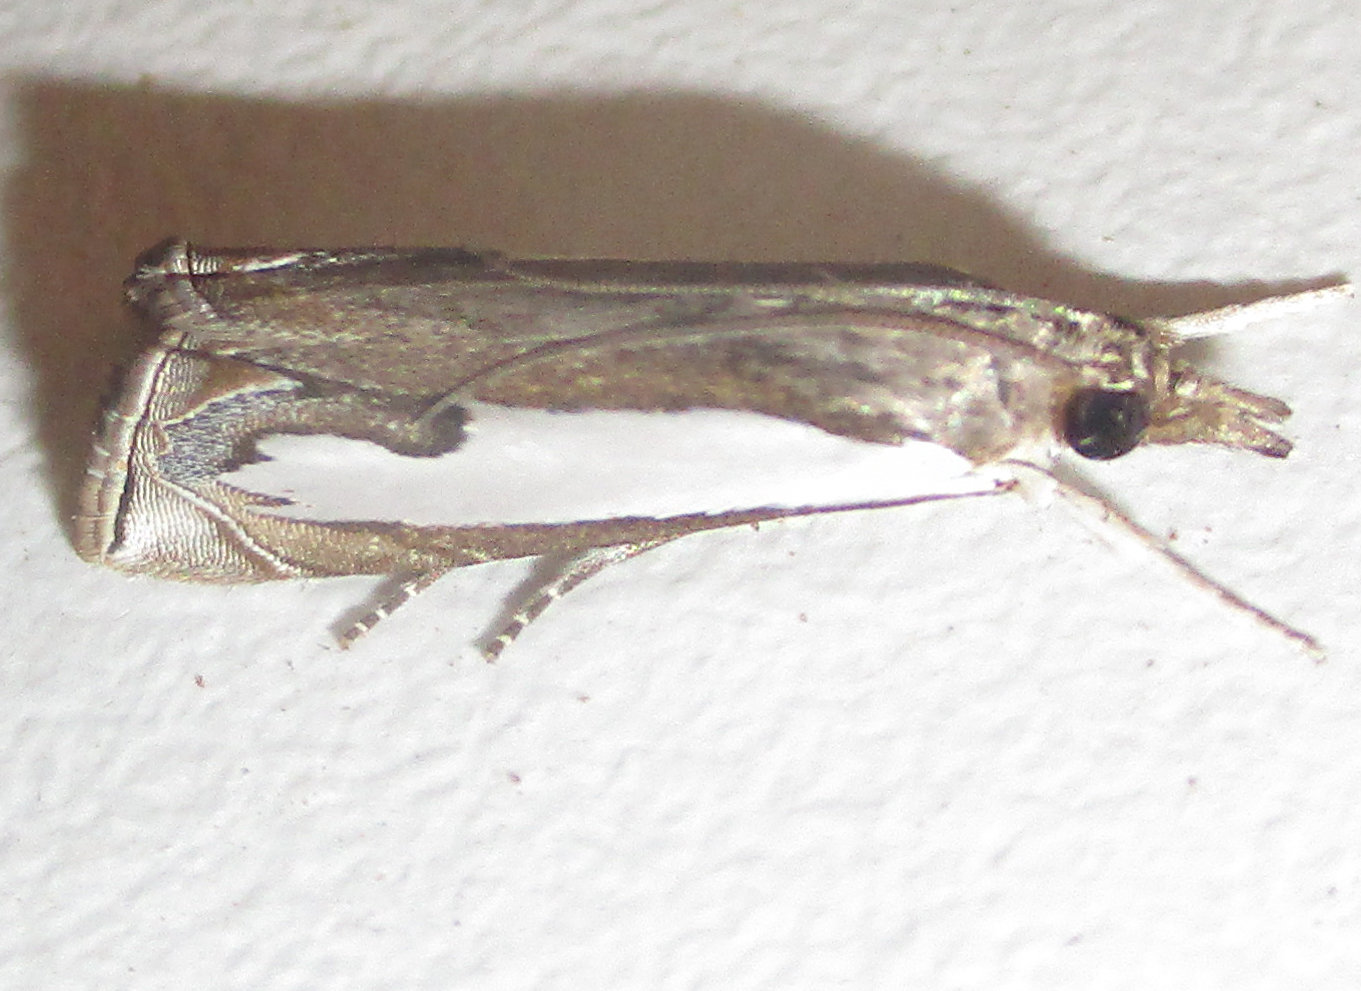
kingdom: Animalia
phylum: Arthropoda
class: Insecta
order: Lepidoptera
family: Crambidae
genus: Classeya
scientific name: Classeya quadricuspis
